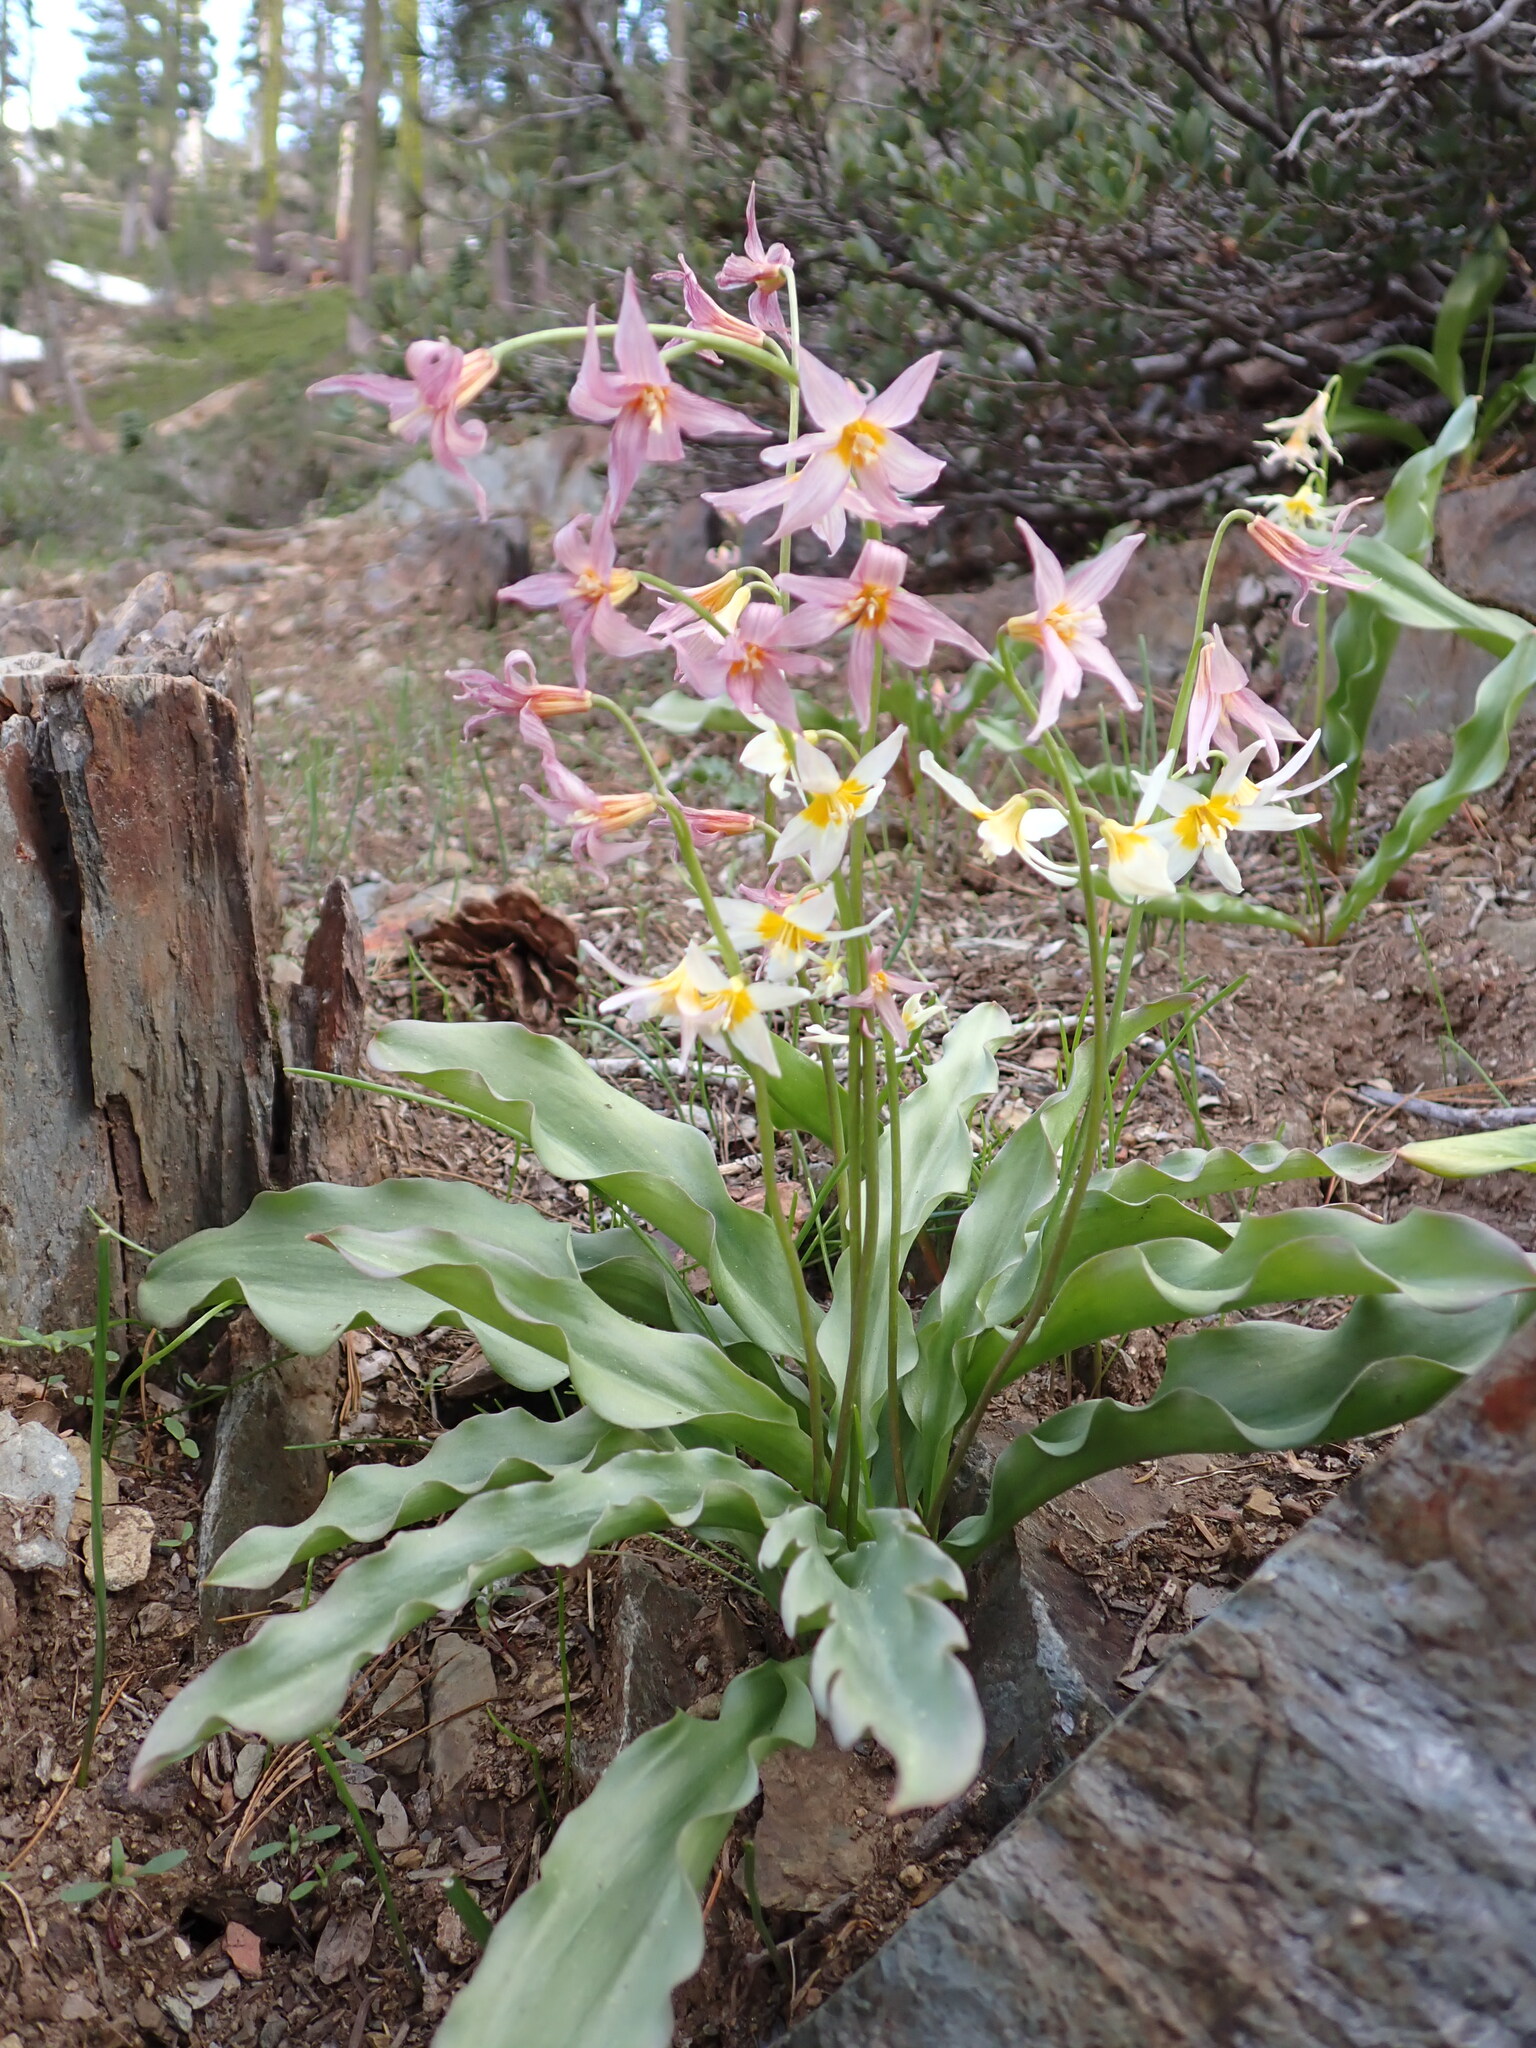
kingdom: Plantae
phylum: Tracheophyta
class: Liliopsida
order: Liliales
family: Liliaceae
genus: Erythronium
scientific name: Erythronium purpurascens
